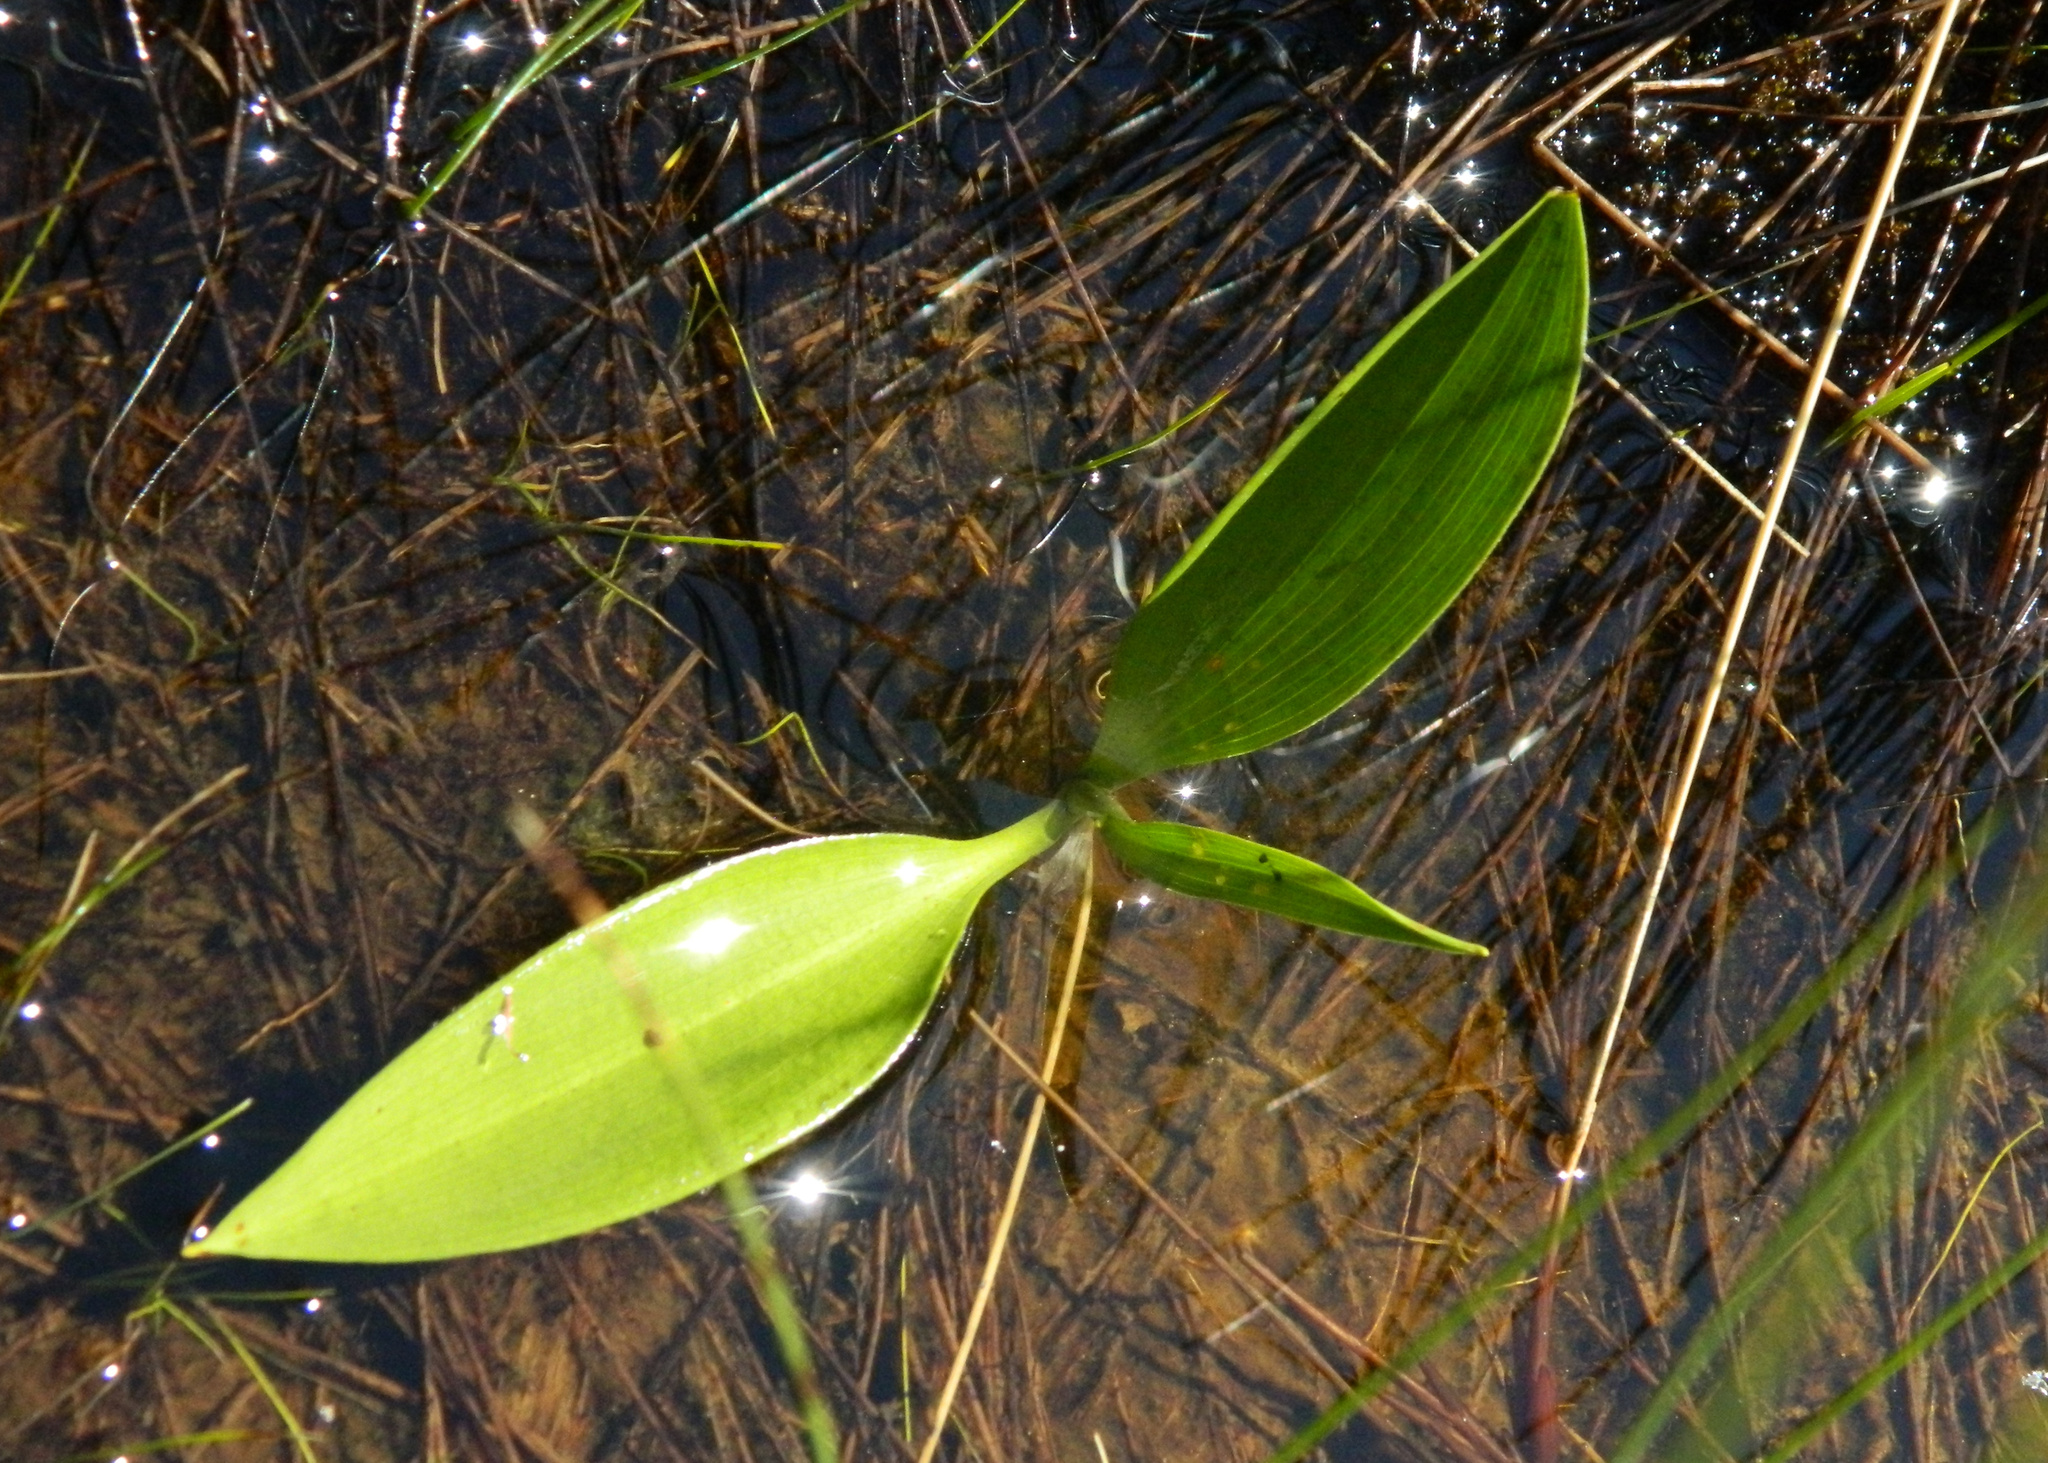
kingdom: Plantae
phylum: Tracheophyta
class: Liliopsida
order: Asparagales
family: Asparagaceae
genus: Maianthemum
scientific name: Maianthemum trifolium
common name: Swamp false solomon's seal
